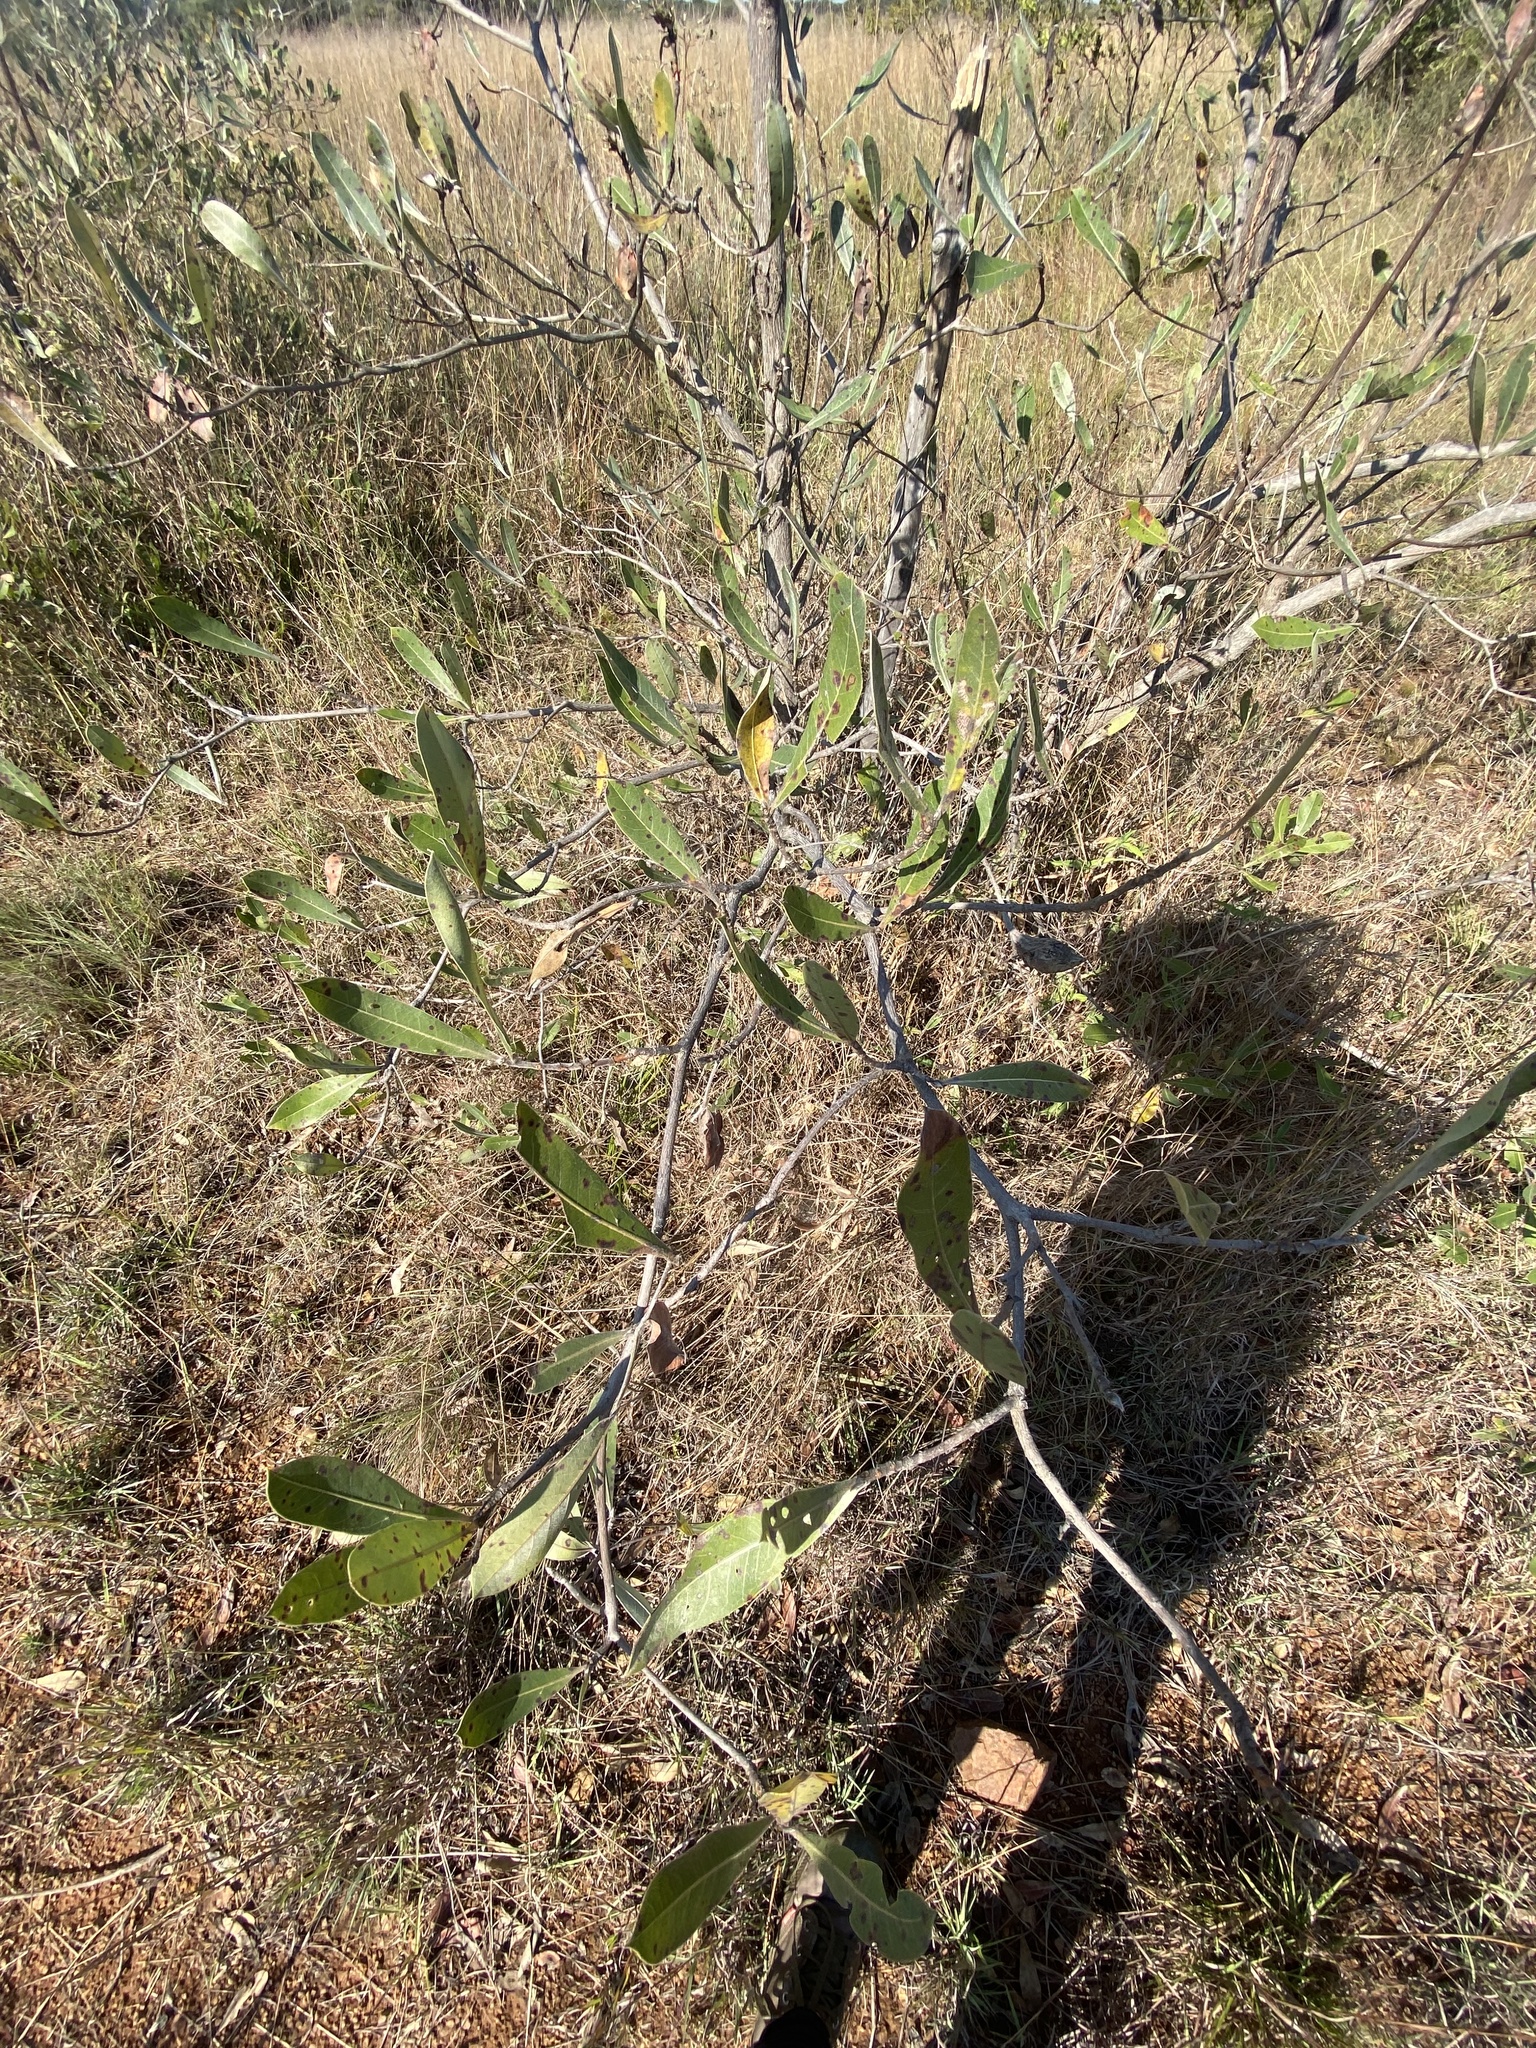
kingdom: Plantae
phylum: Tracheophyta
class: Magnoliopsida
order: Myrtales
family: Combretaceae
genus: Terminalia
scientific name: Terminalia sericea
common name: Clusterleaf
